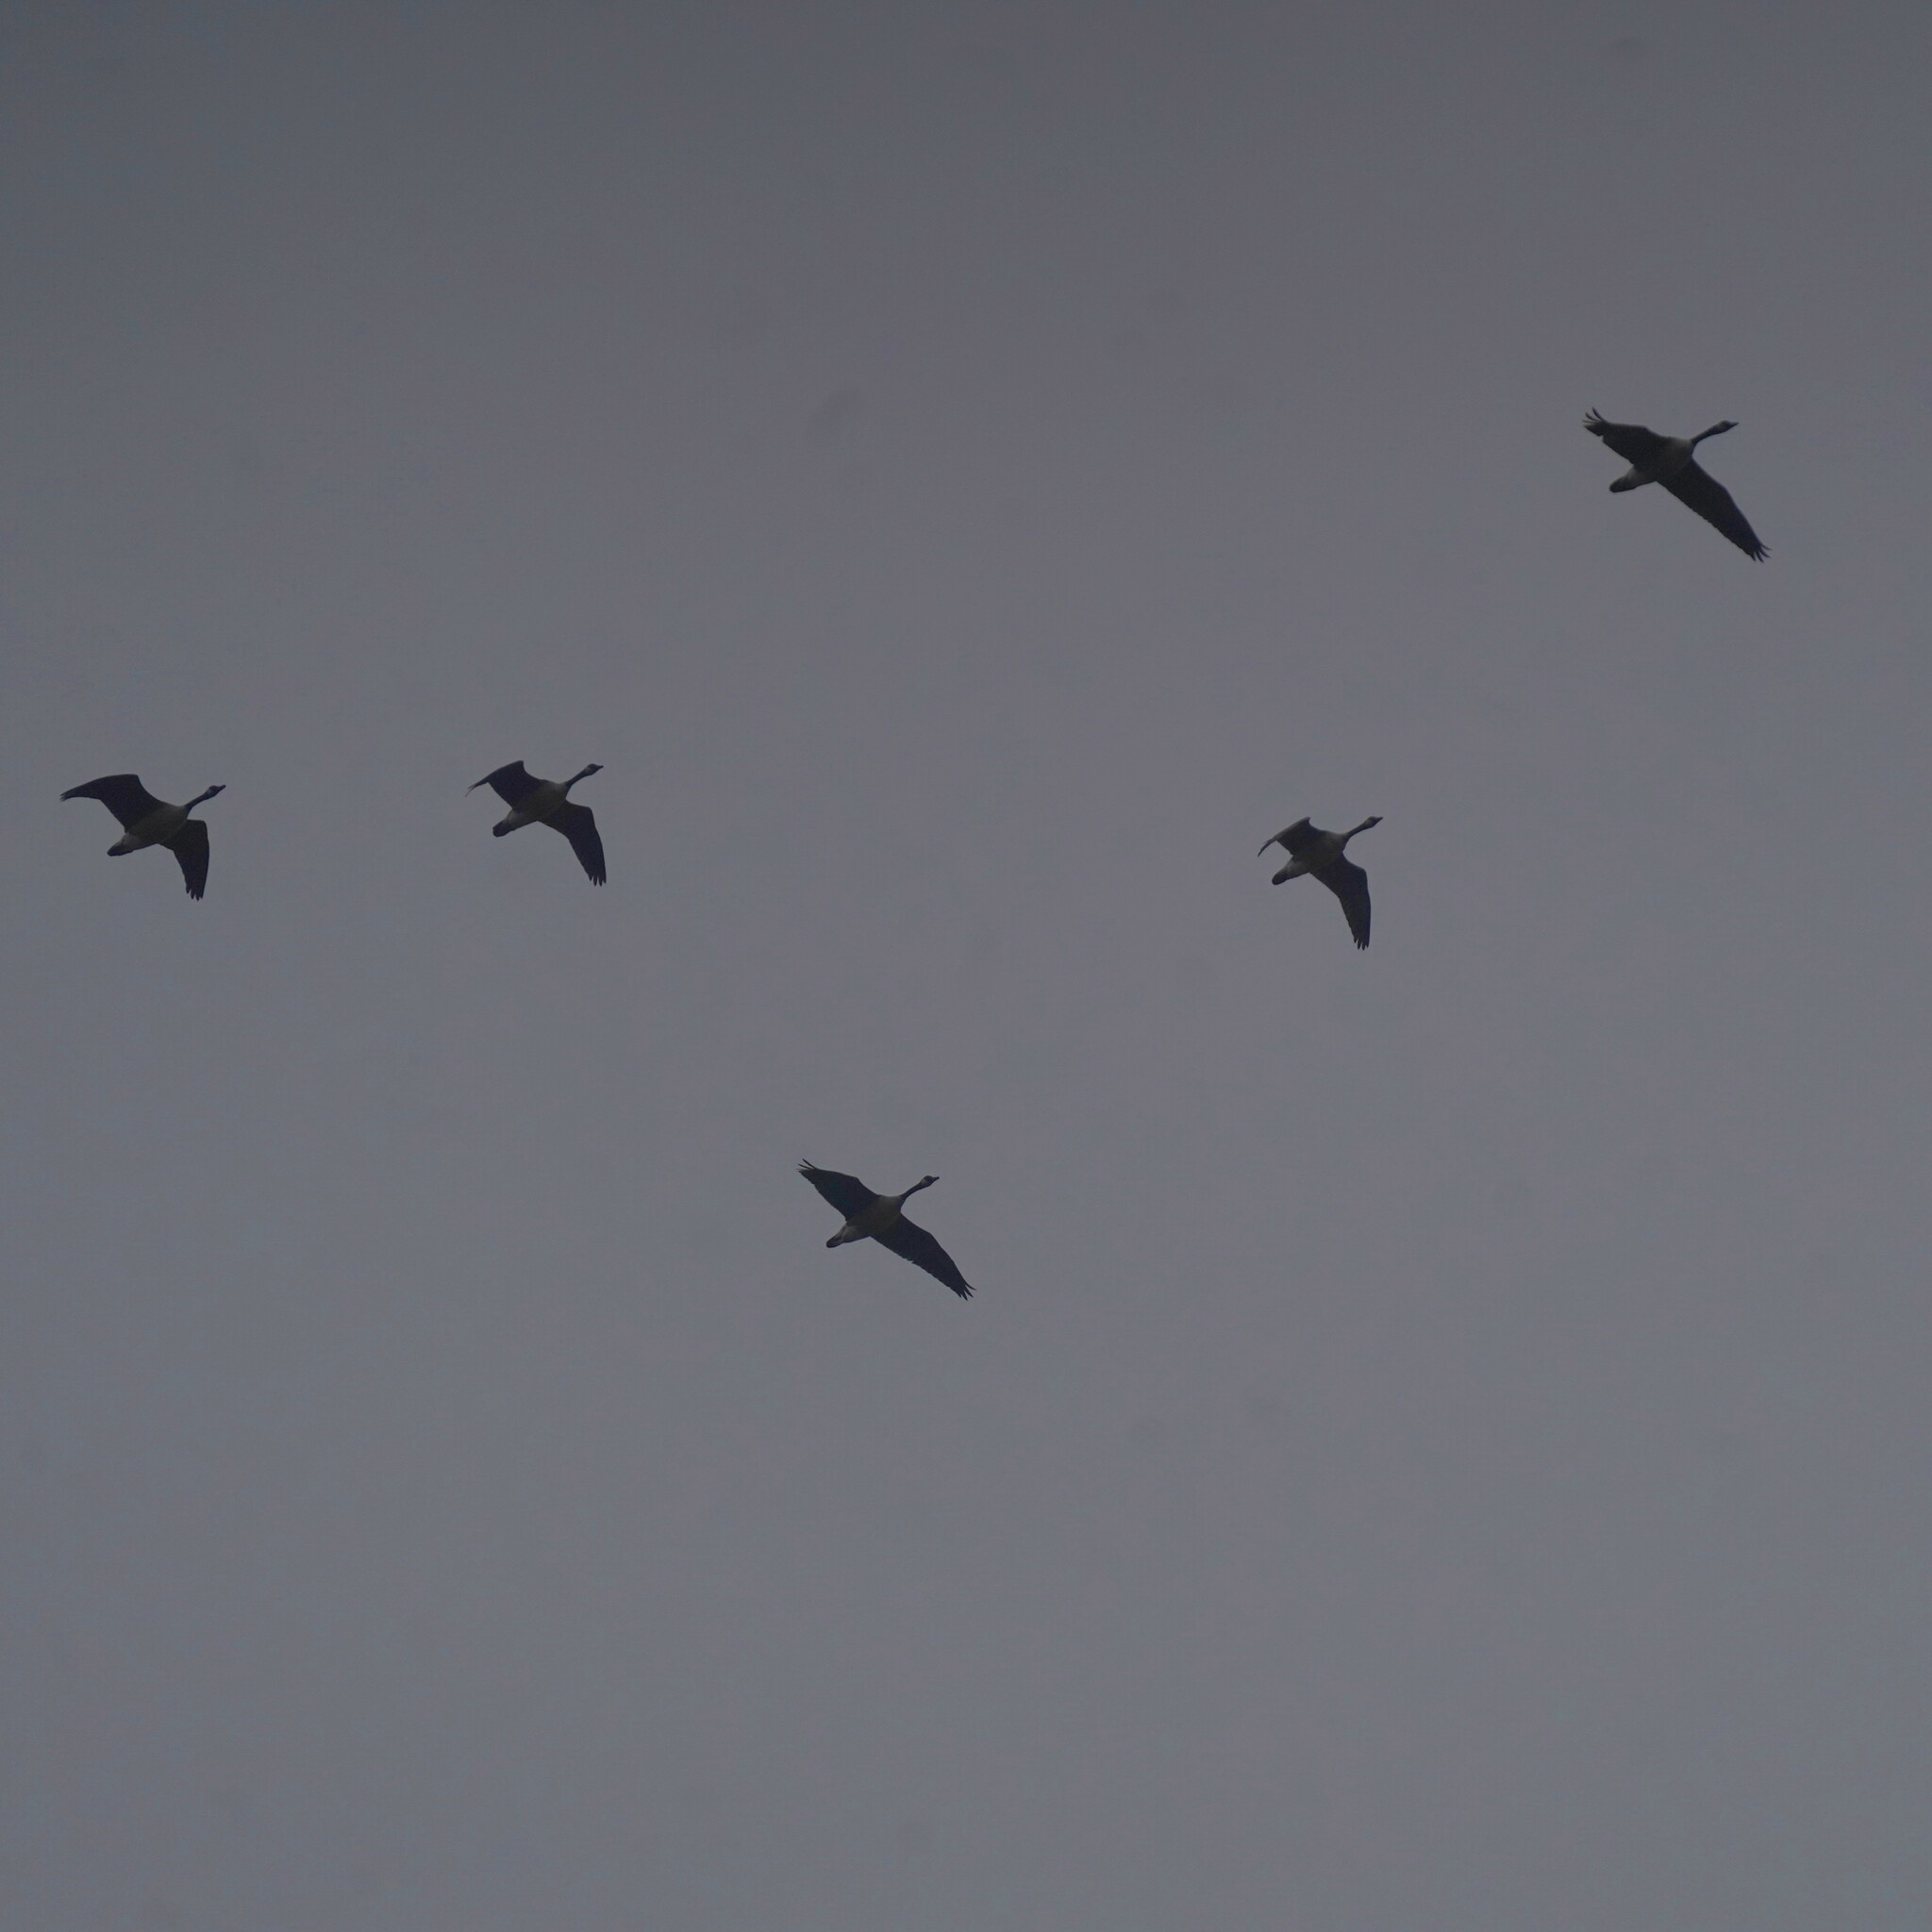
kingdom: Animalia
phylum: Chordata
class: Aves
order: Anseriformes
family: Anatidae
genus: Branta
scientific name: Branta canadensis
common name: Canada goose
